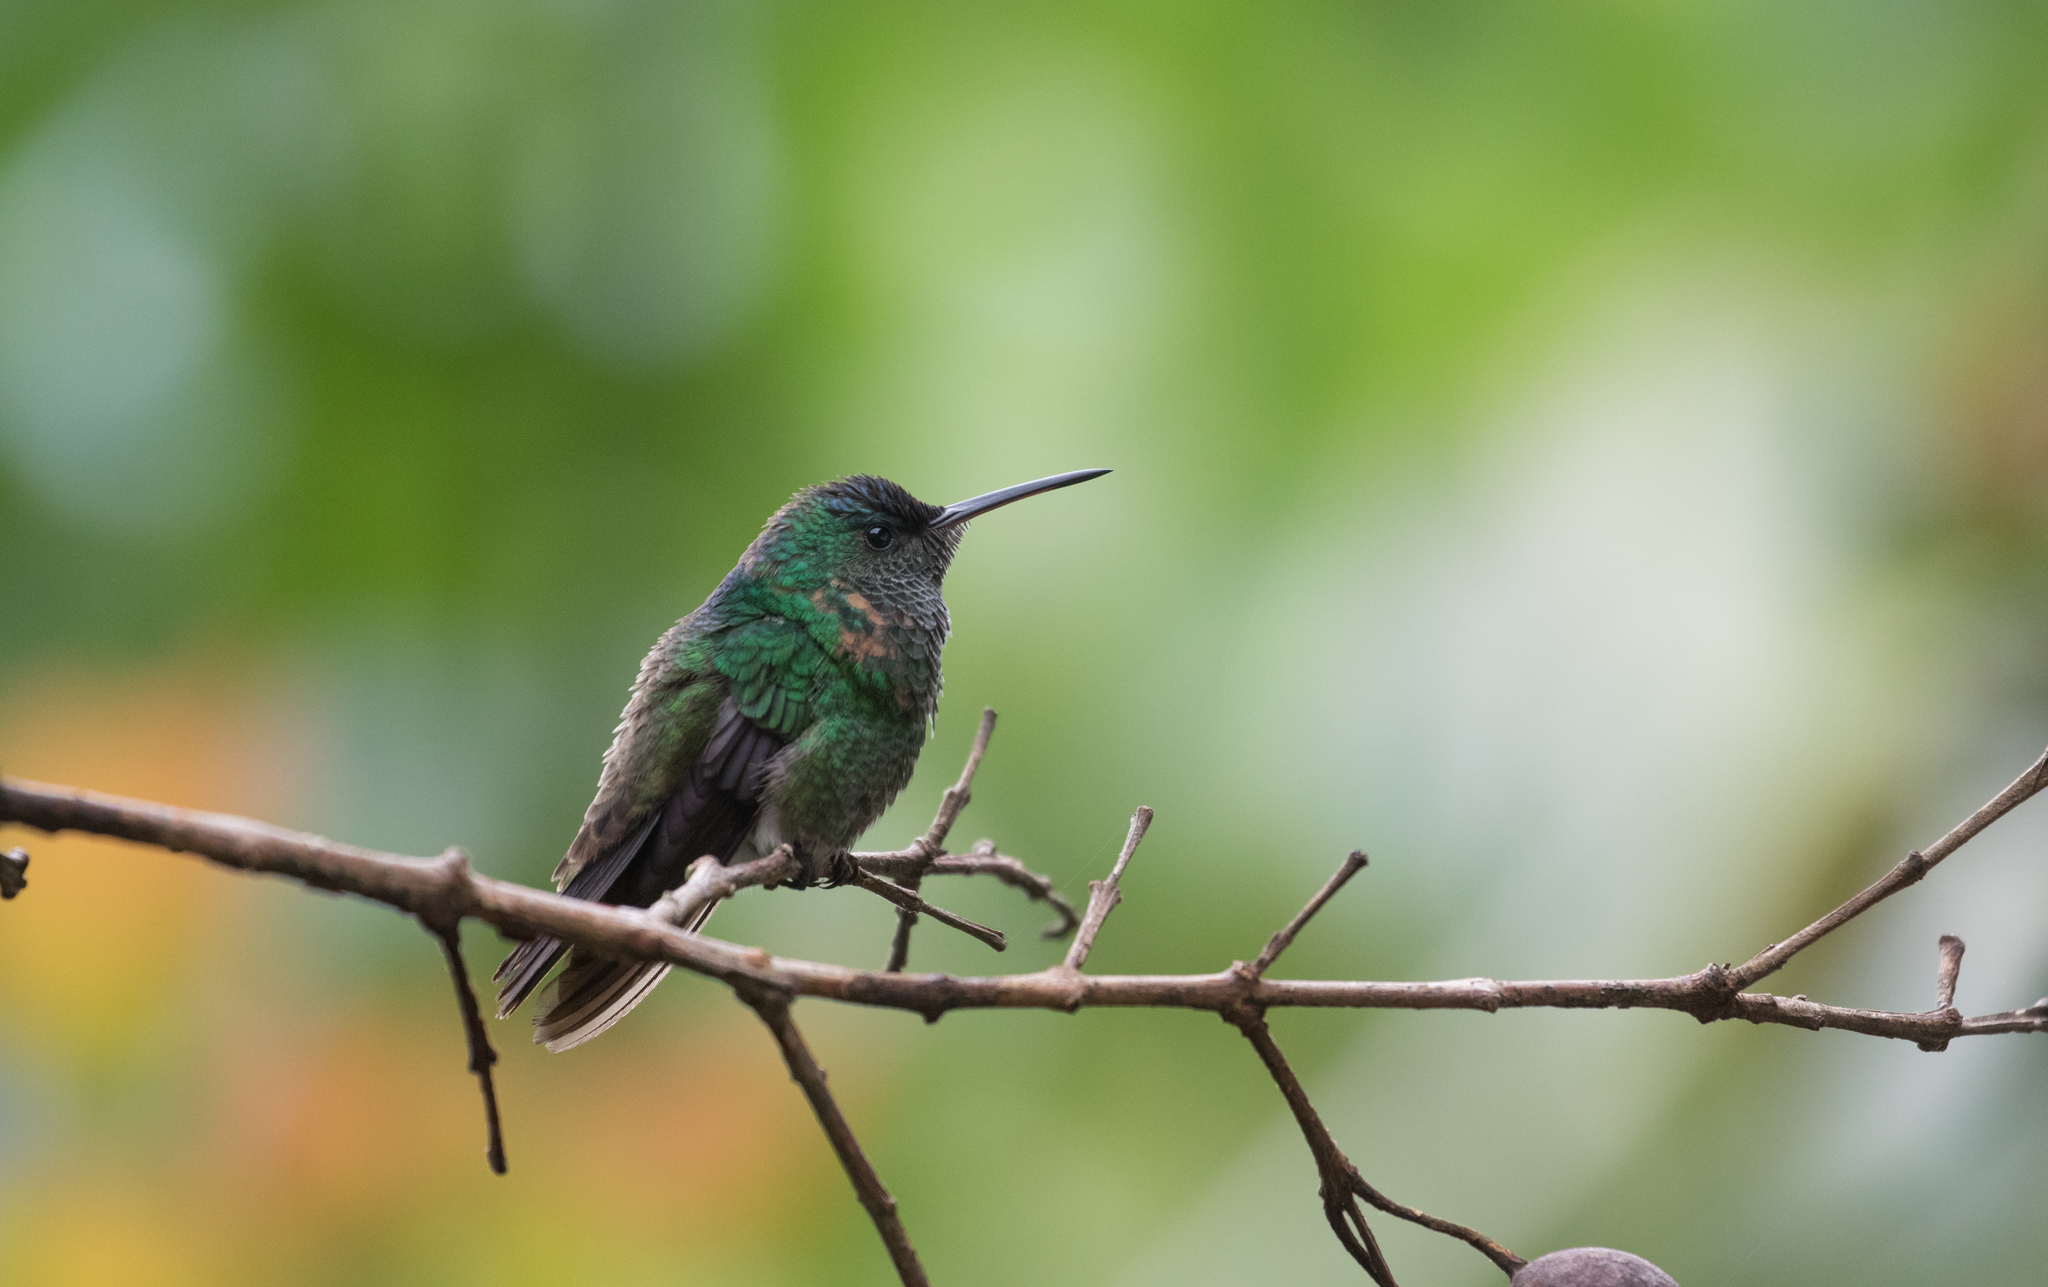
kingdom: Animalia
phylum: Chordata
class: Aves
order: Apodiformes
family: Trochilidae
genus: Saucerottia
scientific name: Saucerottia cyanifrons
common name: Indigo-capped hummingbird
